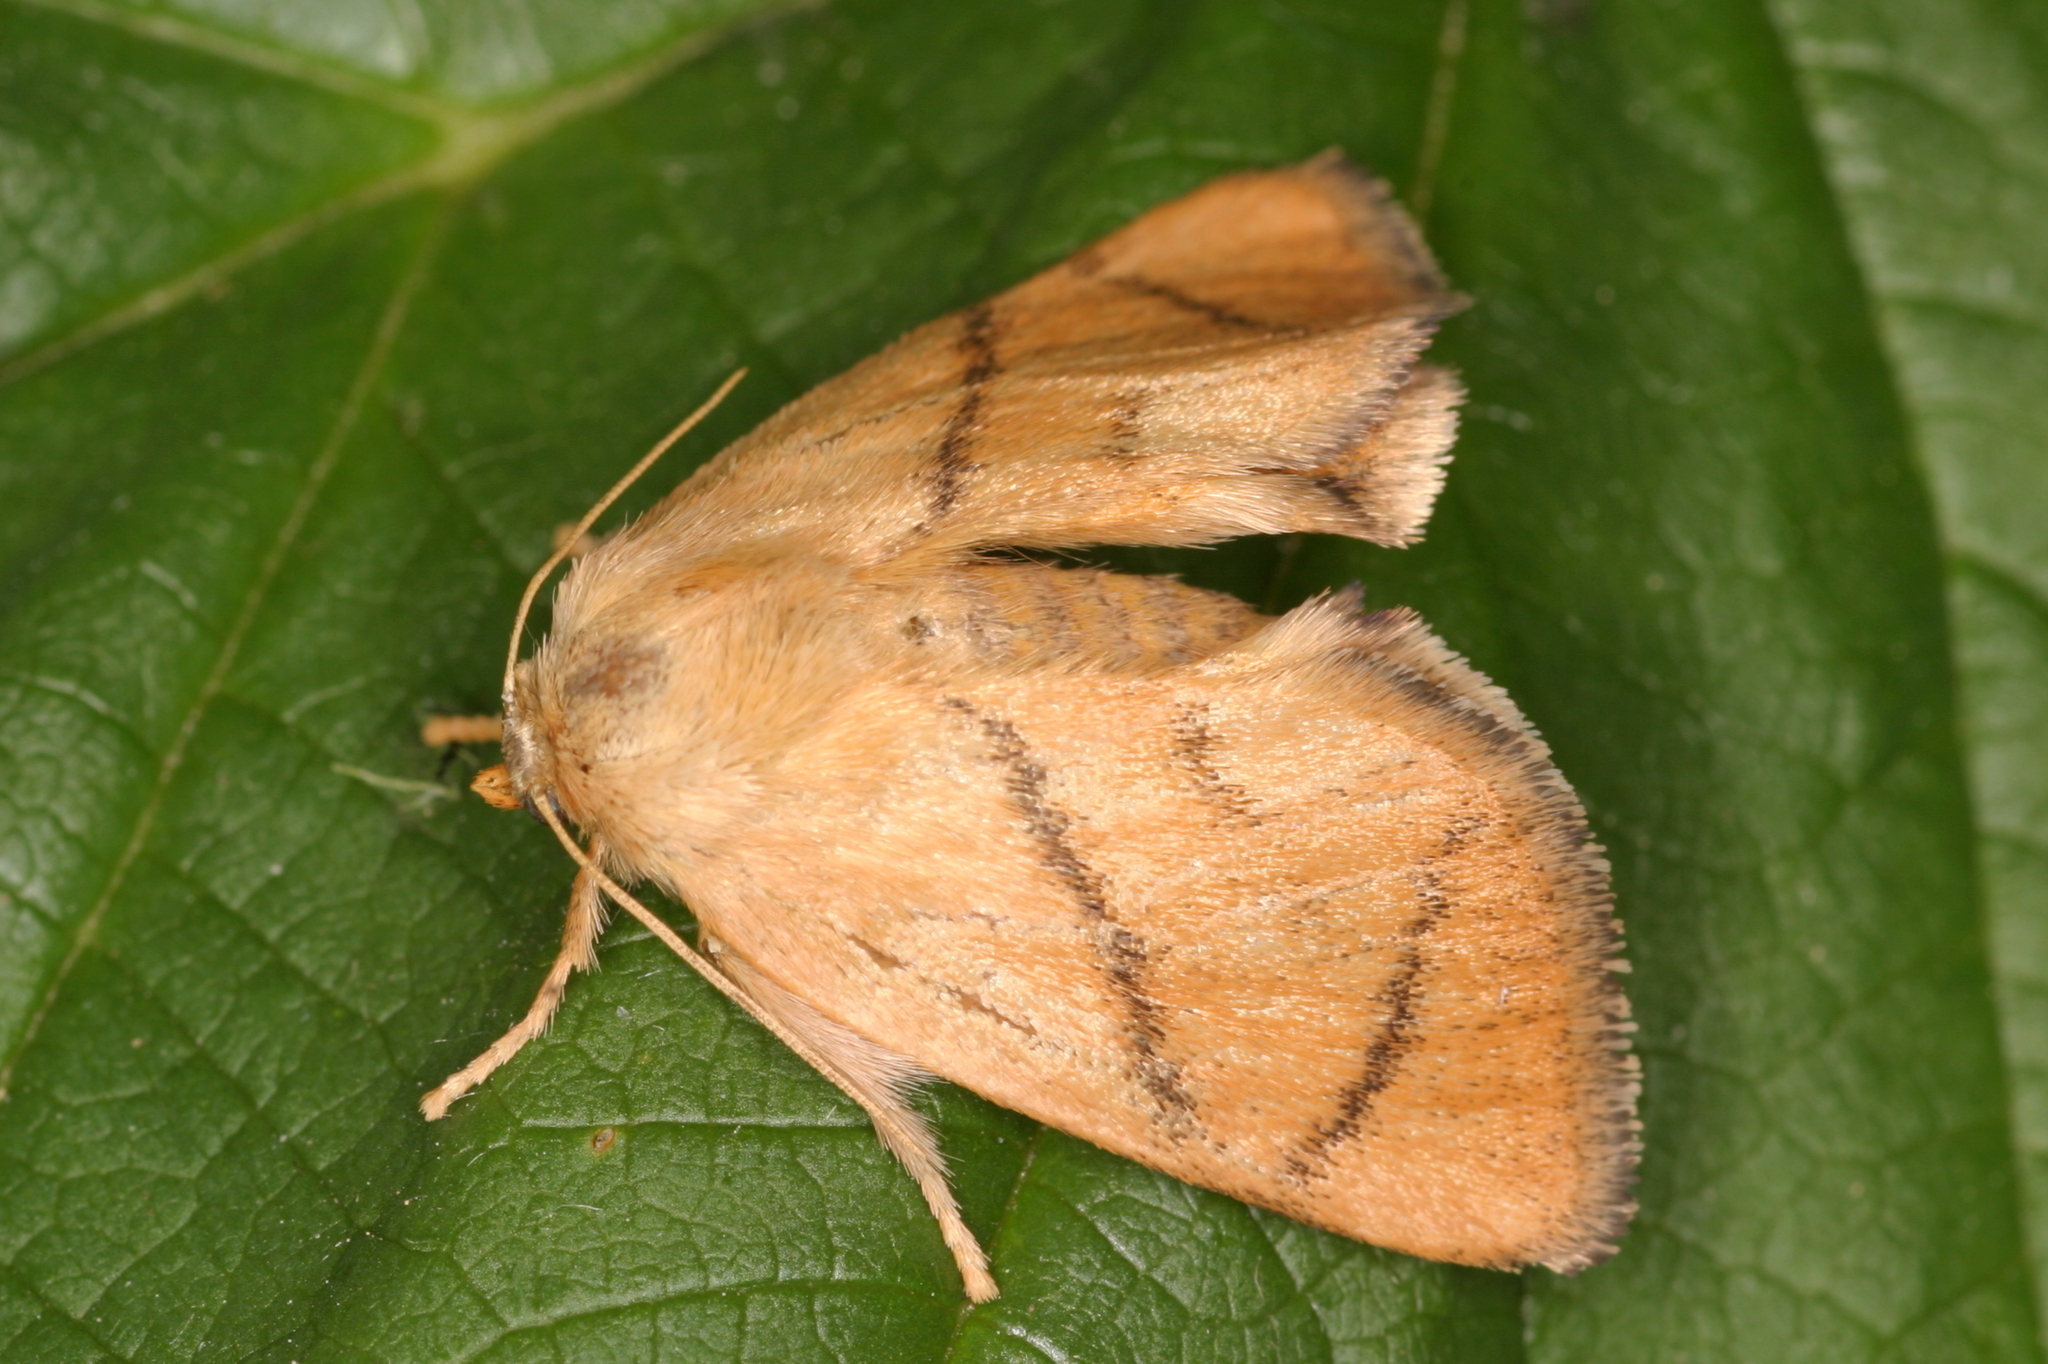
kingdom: Animalia
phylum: Arthropoda
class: Insecta
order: Lepidoptera
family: Limacodidae
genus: Apoda
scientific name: Apoda limacodes
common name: Festoon
